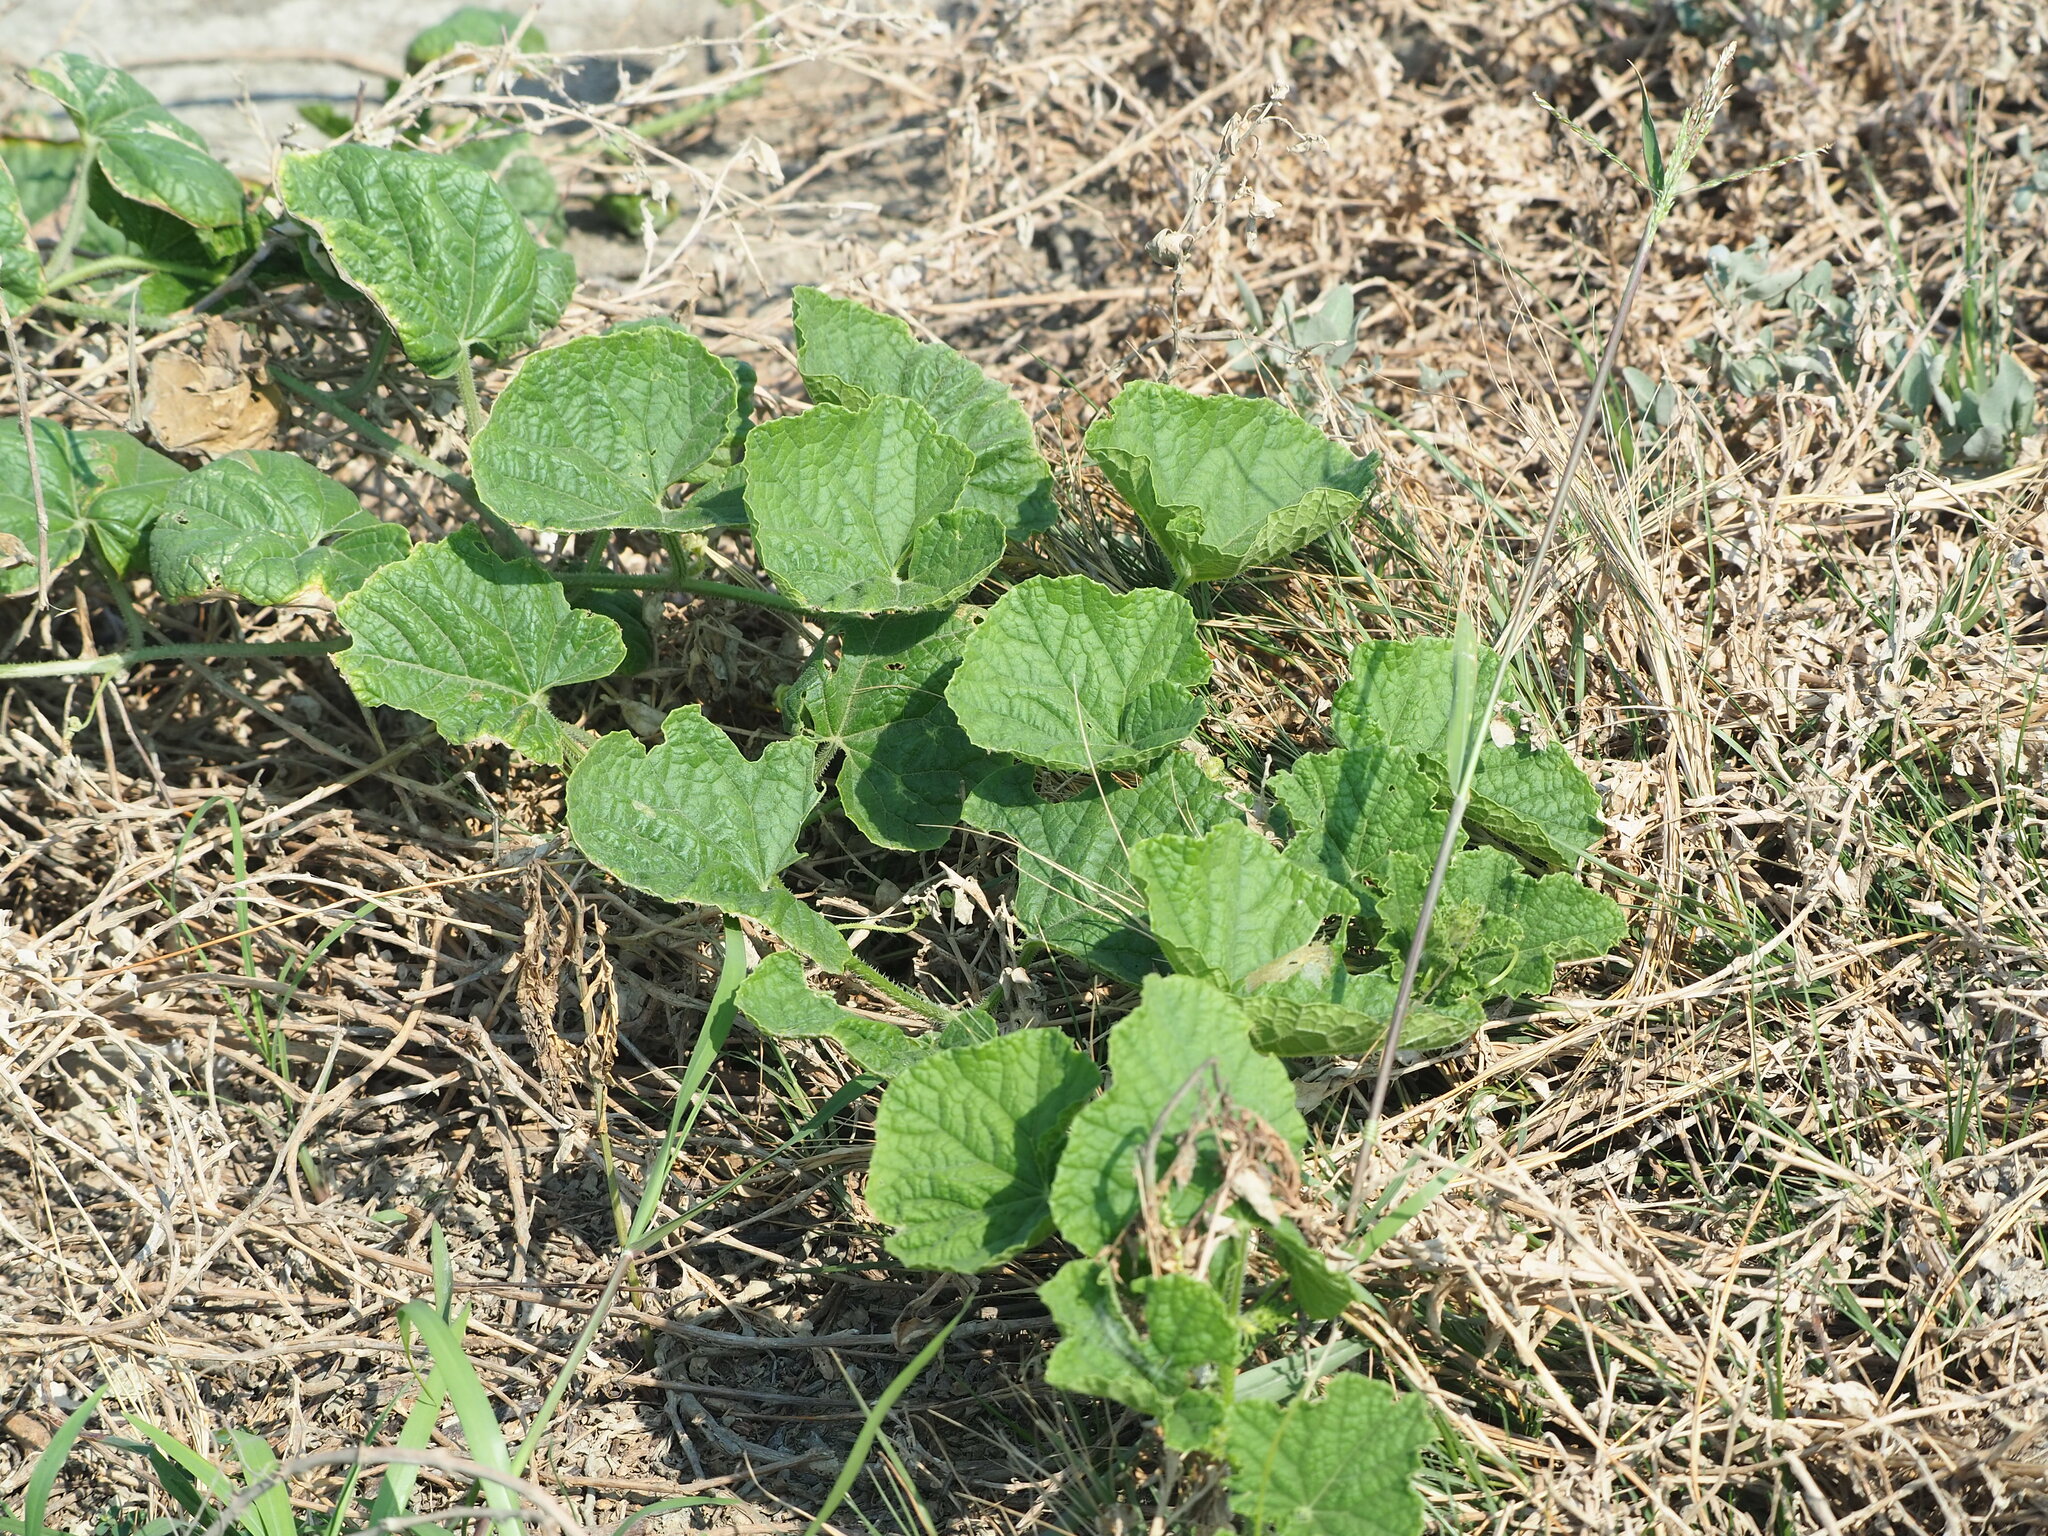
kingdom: Plantae
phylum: Tracheophyta
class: Magnoliopsida
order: Cucurbitales
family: Cucurbitaceae
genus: Cucumis
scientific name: Cucumis melo
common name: Melon
